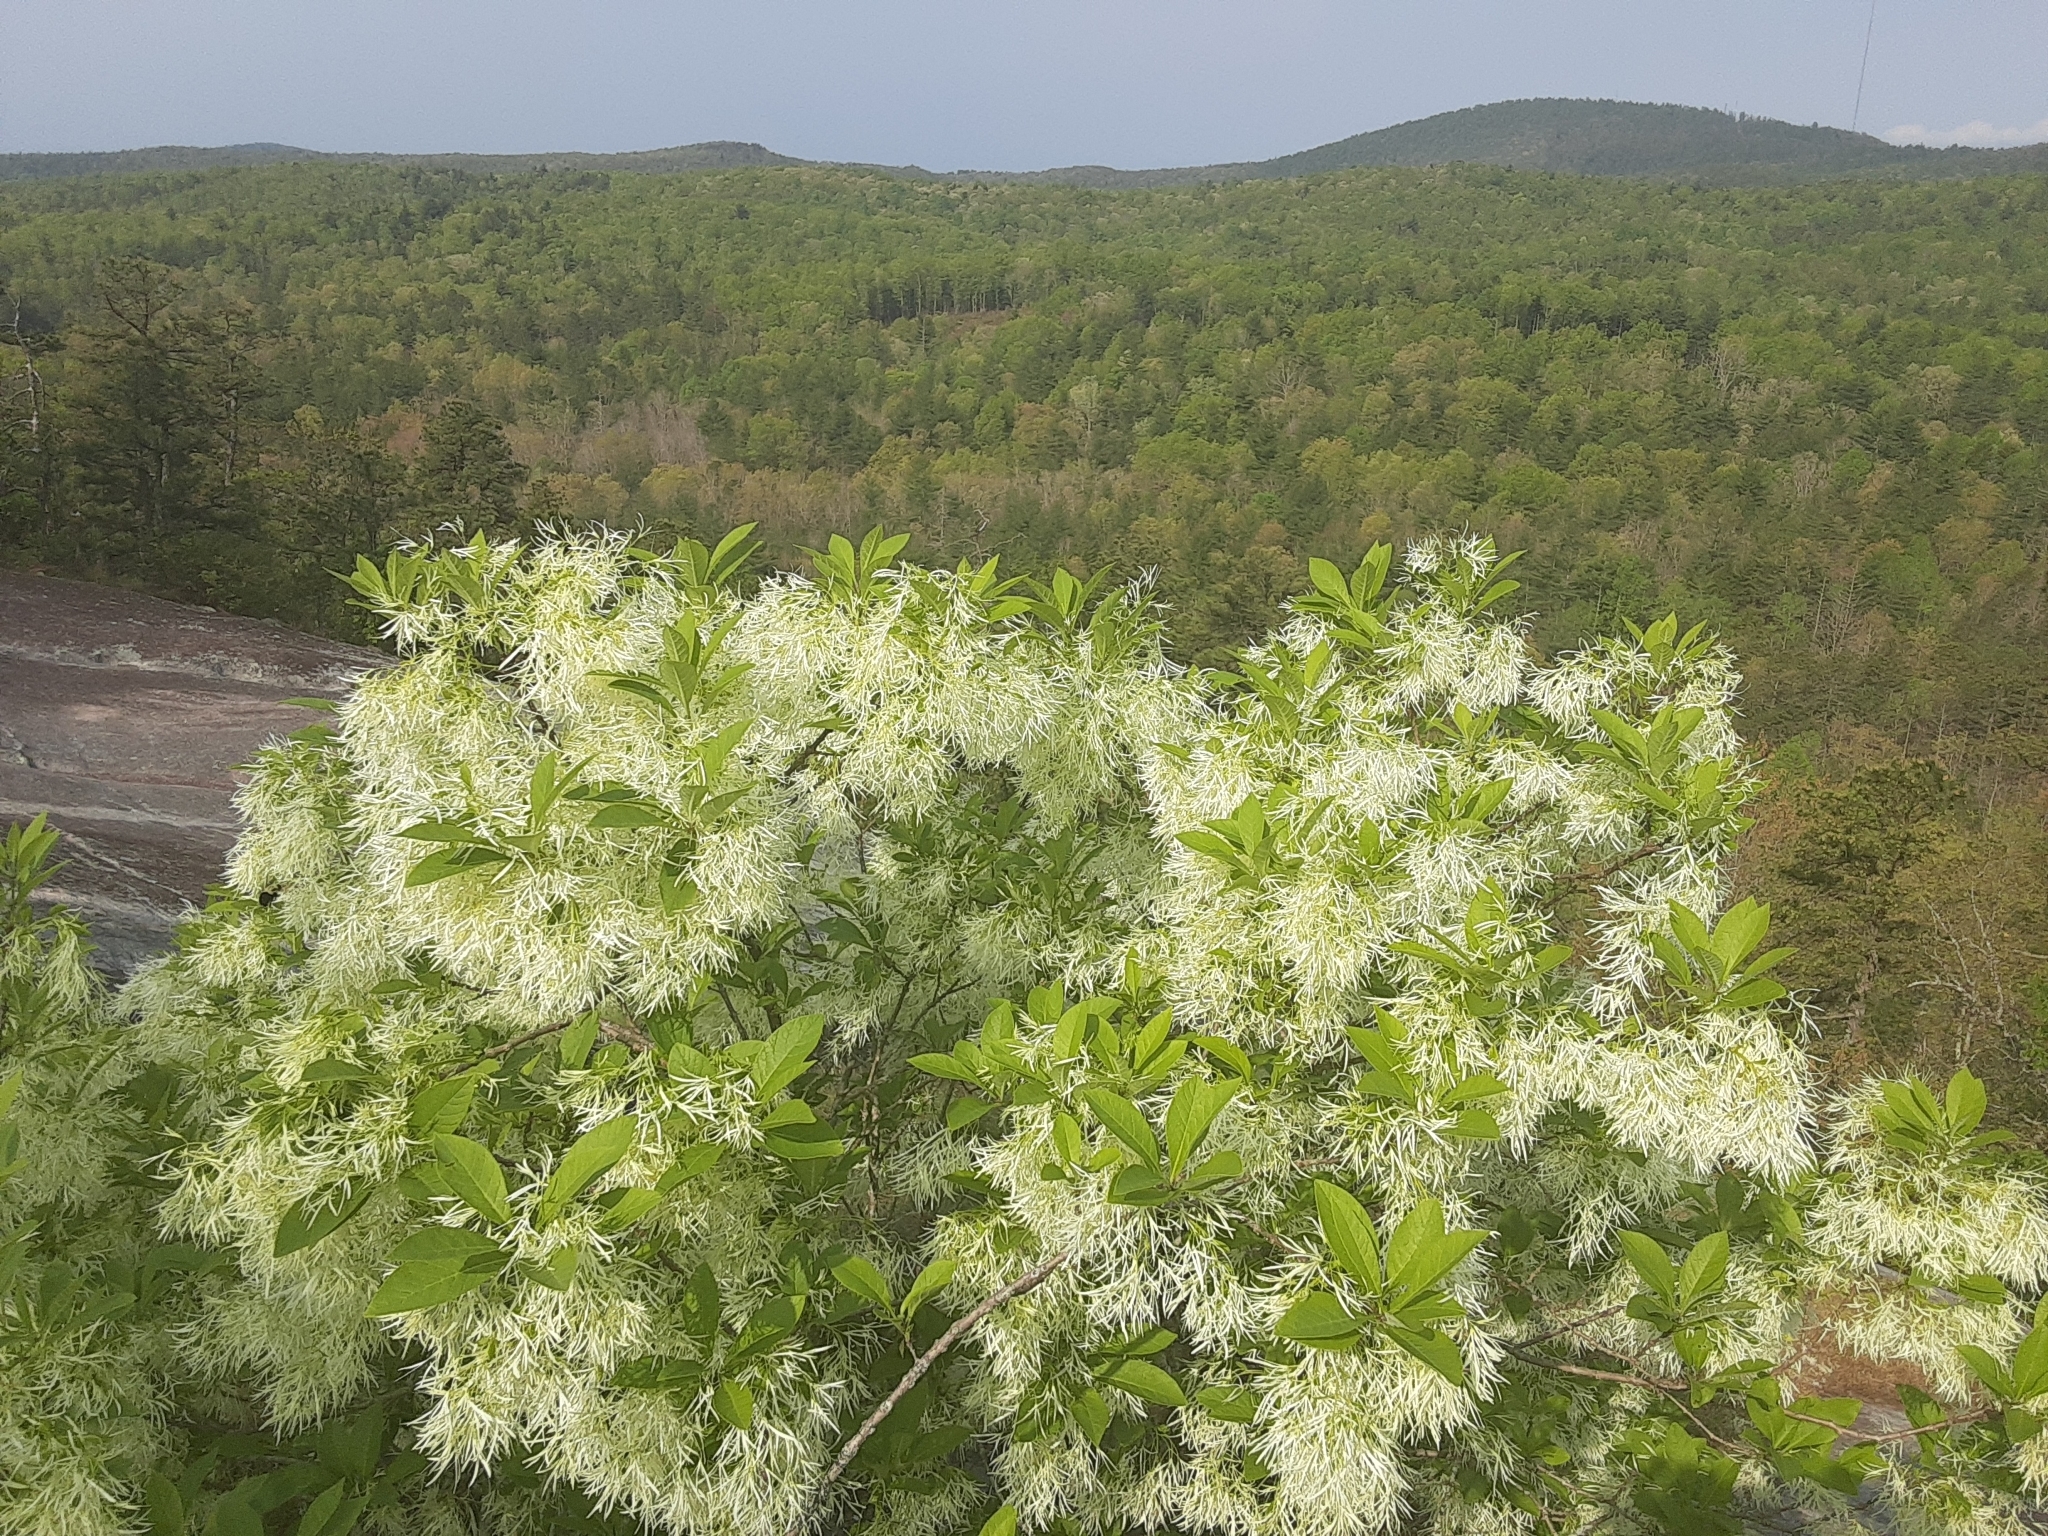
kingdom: Plantae
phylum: Tracheophyta
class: Magnoliopsida
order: Lamiales
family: Oleaceae
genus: Chionanthus
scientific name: Chionanthus virginicus
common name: American fringetree
